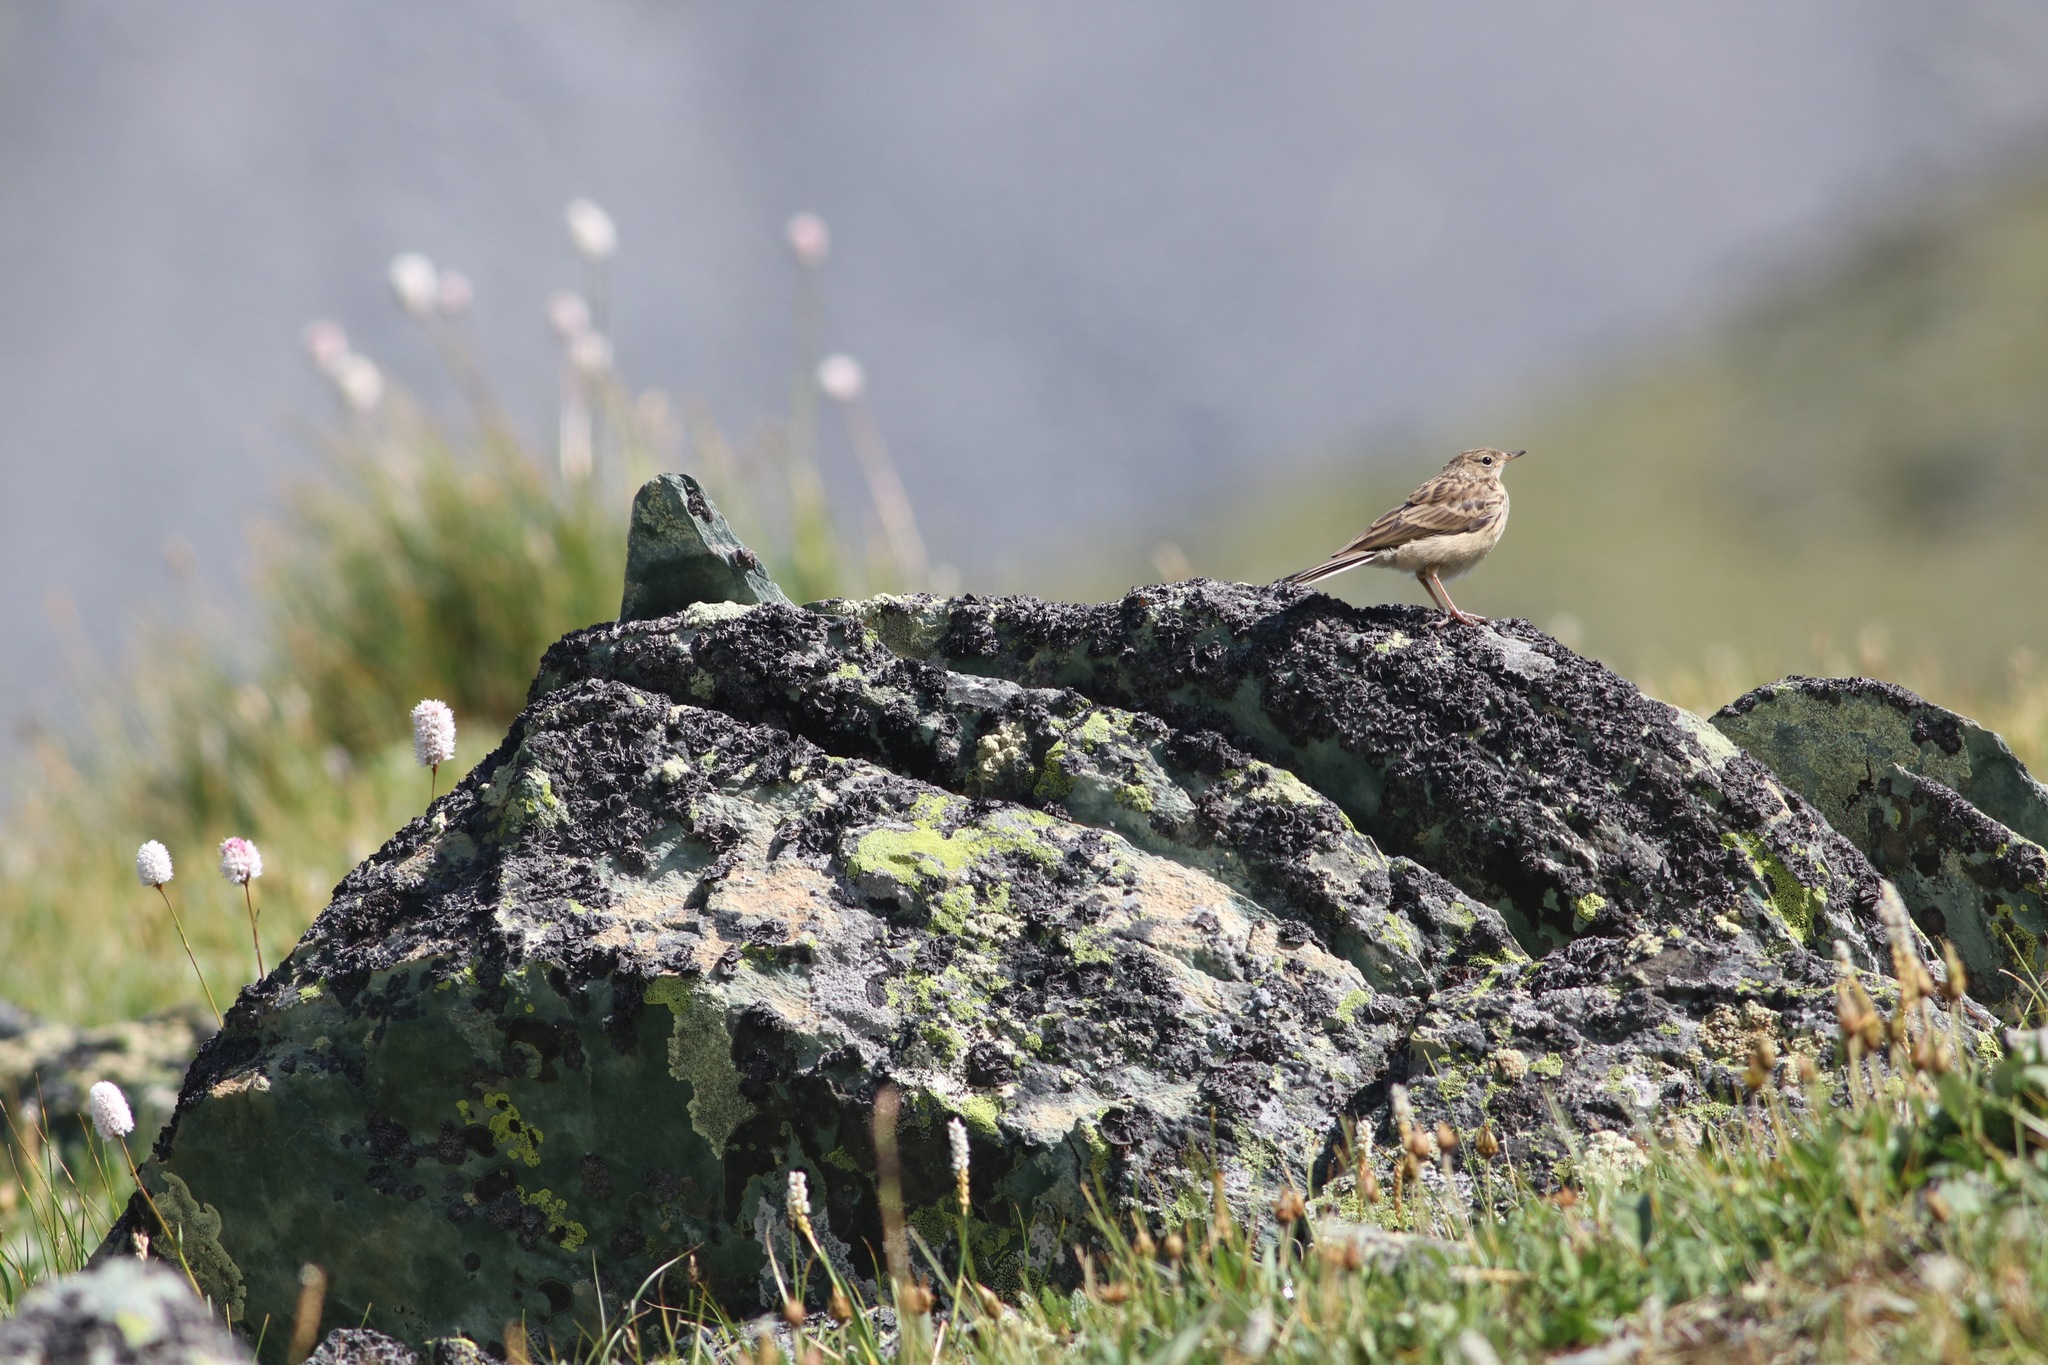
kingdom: Animalia
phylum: Chordata
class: Aves
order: Passeriformes
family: Motacillidae
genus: Anthus
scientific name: Anthus spinoletta
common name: Water pipit
